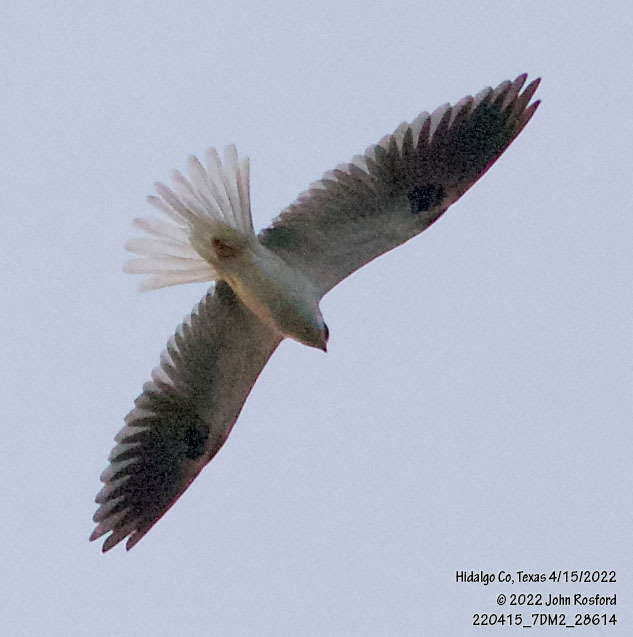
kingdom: Animalia
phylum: Chordata
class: Aves
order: Accipitriformes
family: Accipitridae
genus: Elanus
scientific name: Elanus leucurus
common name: White-tailed kite
